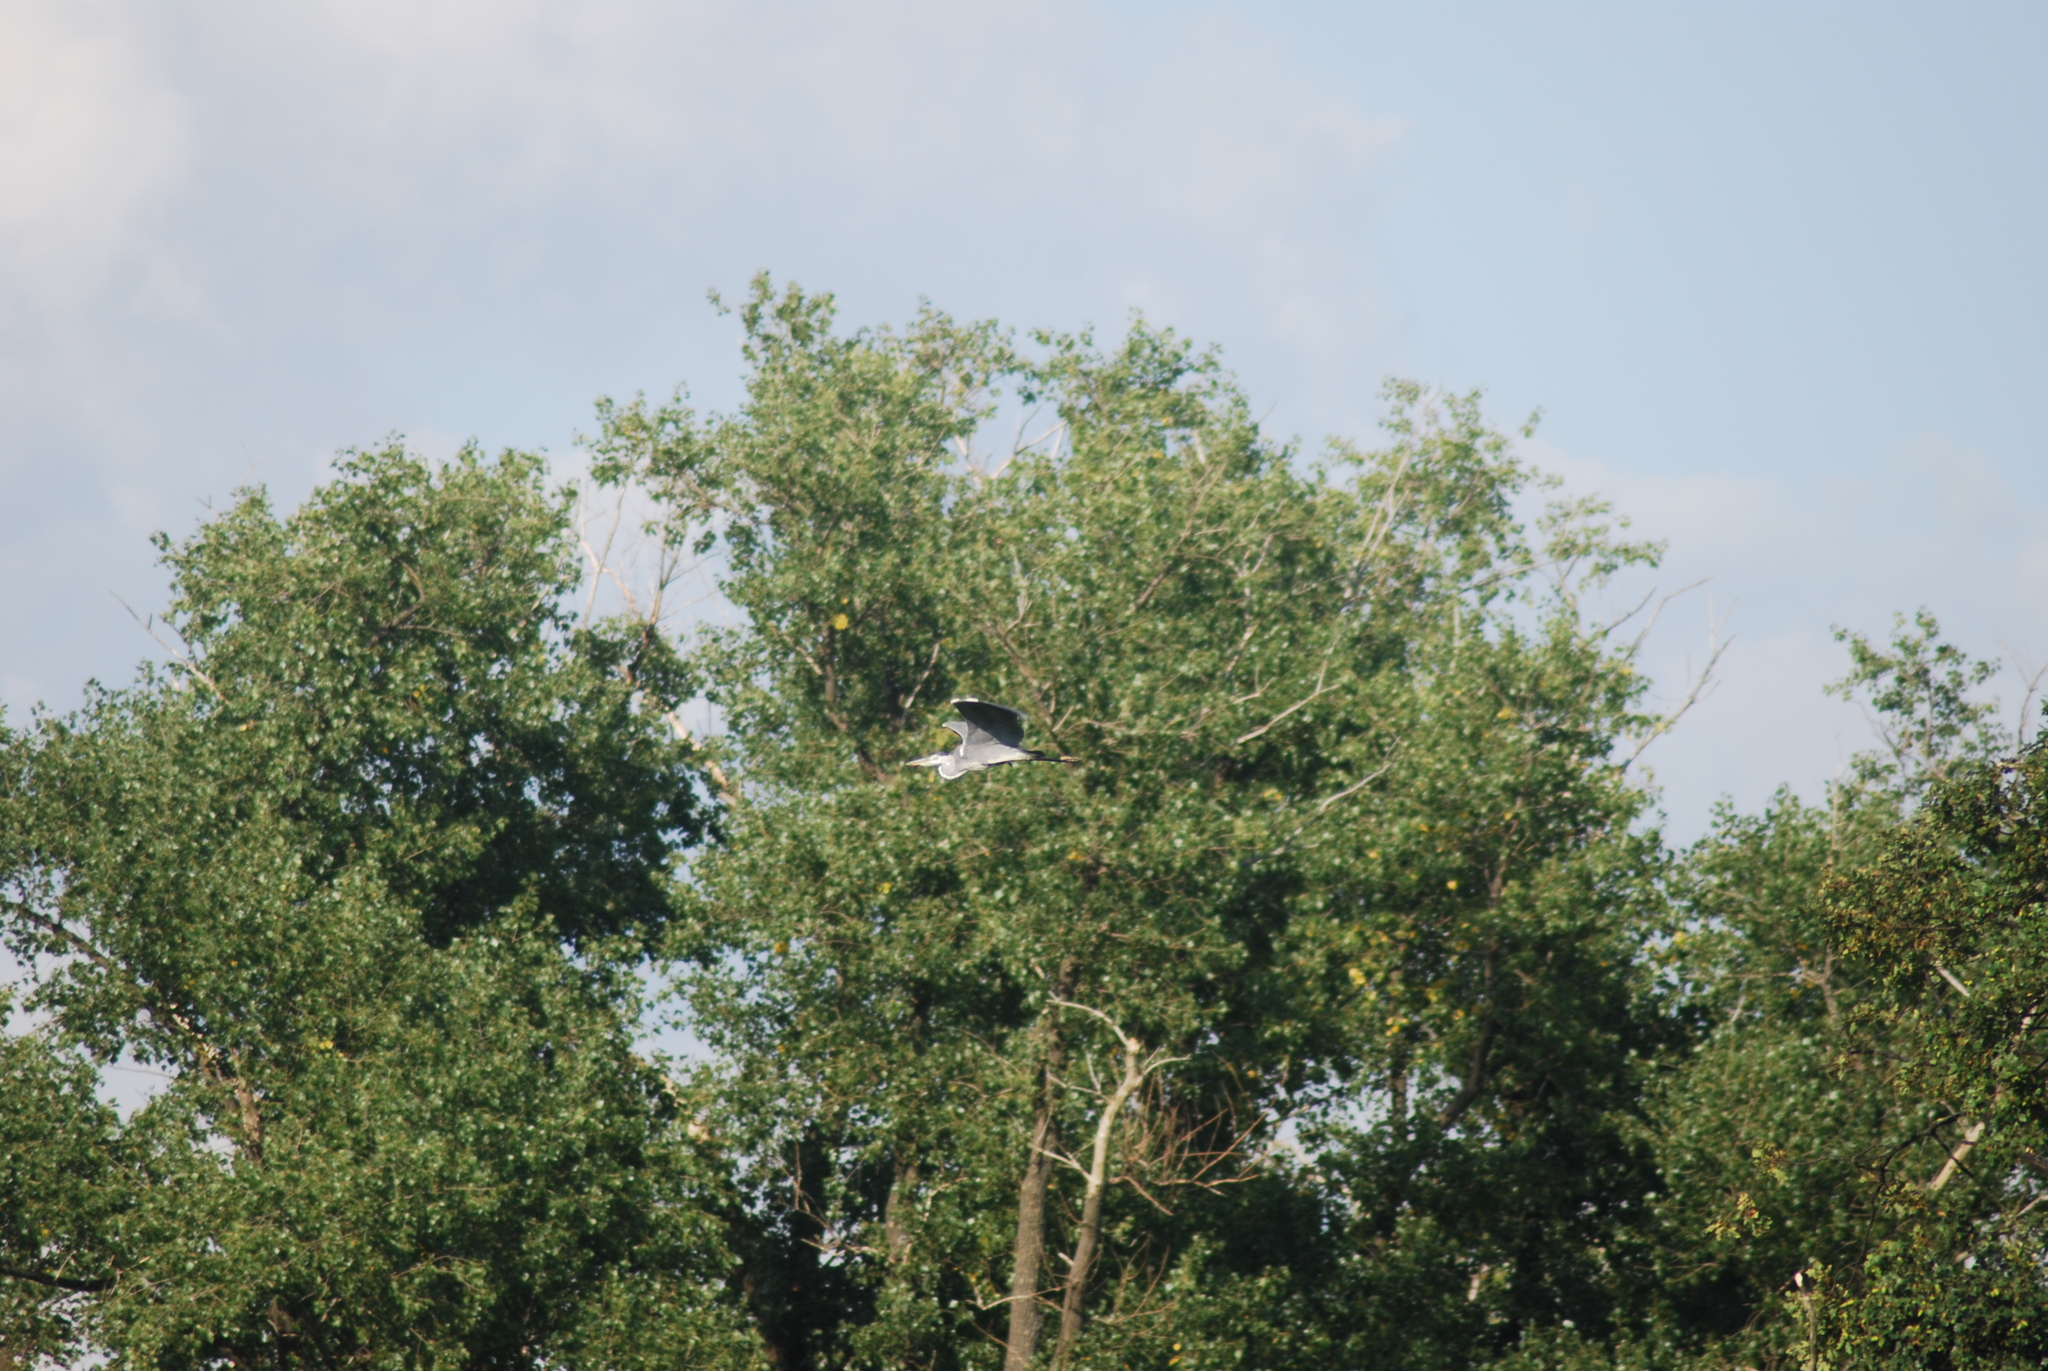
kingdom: Animalia
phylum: Chordata
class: Aves
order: Pelecaniformes
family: Ardeidae
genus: Ardea
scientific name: Ardea cinerea
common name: Grey heron
